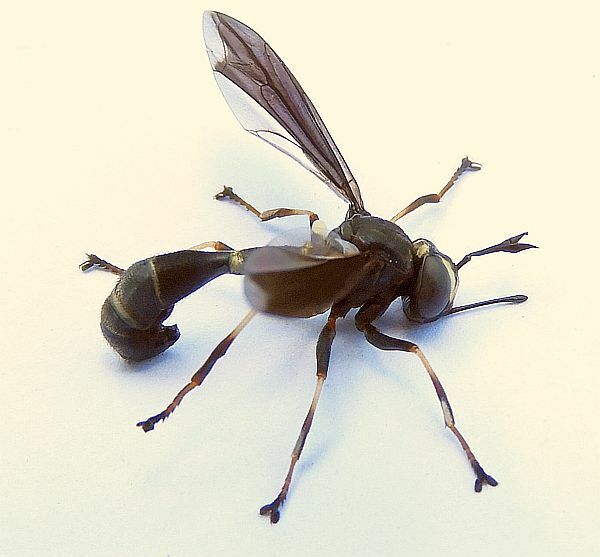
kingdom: Animalia
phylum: Arthropoda
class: Insecta
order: Diptera
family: Conopidae
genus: Physocephala
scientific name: Physocephala tibialis
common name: Common eastern physocephala
